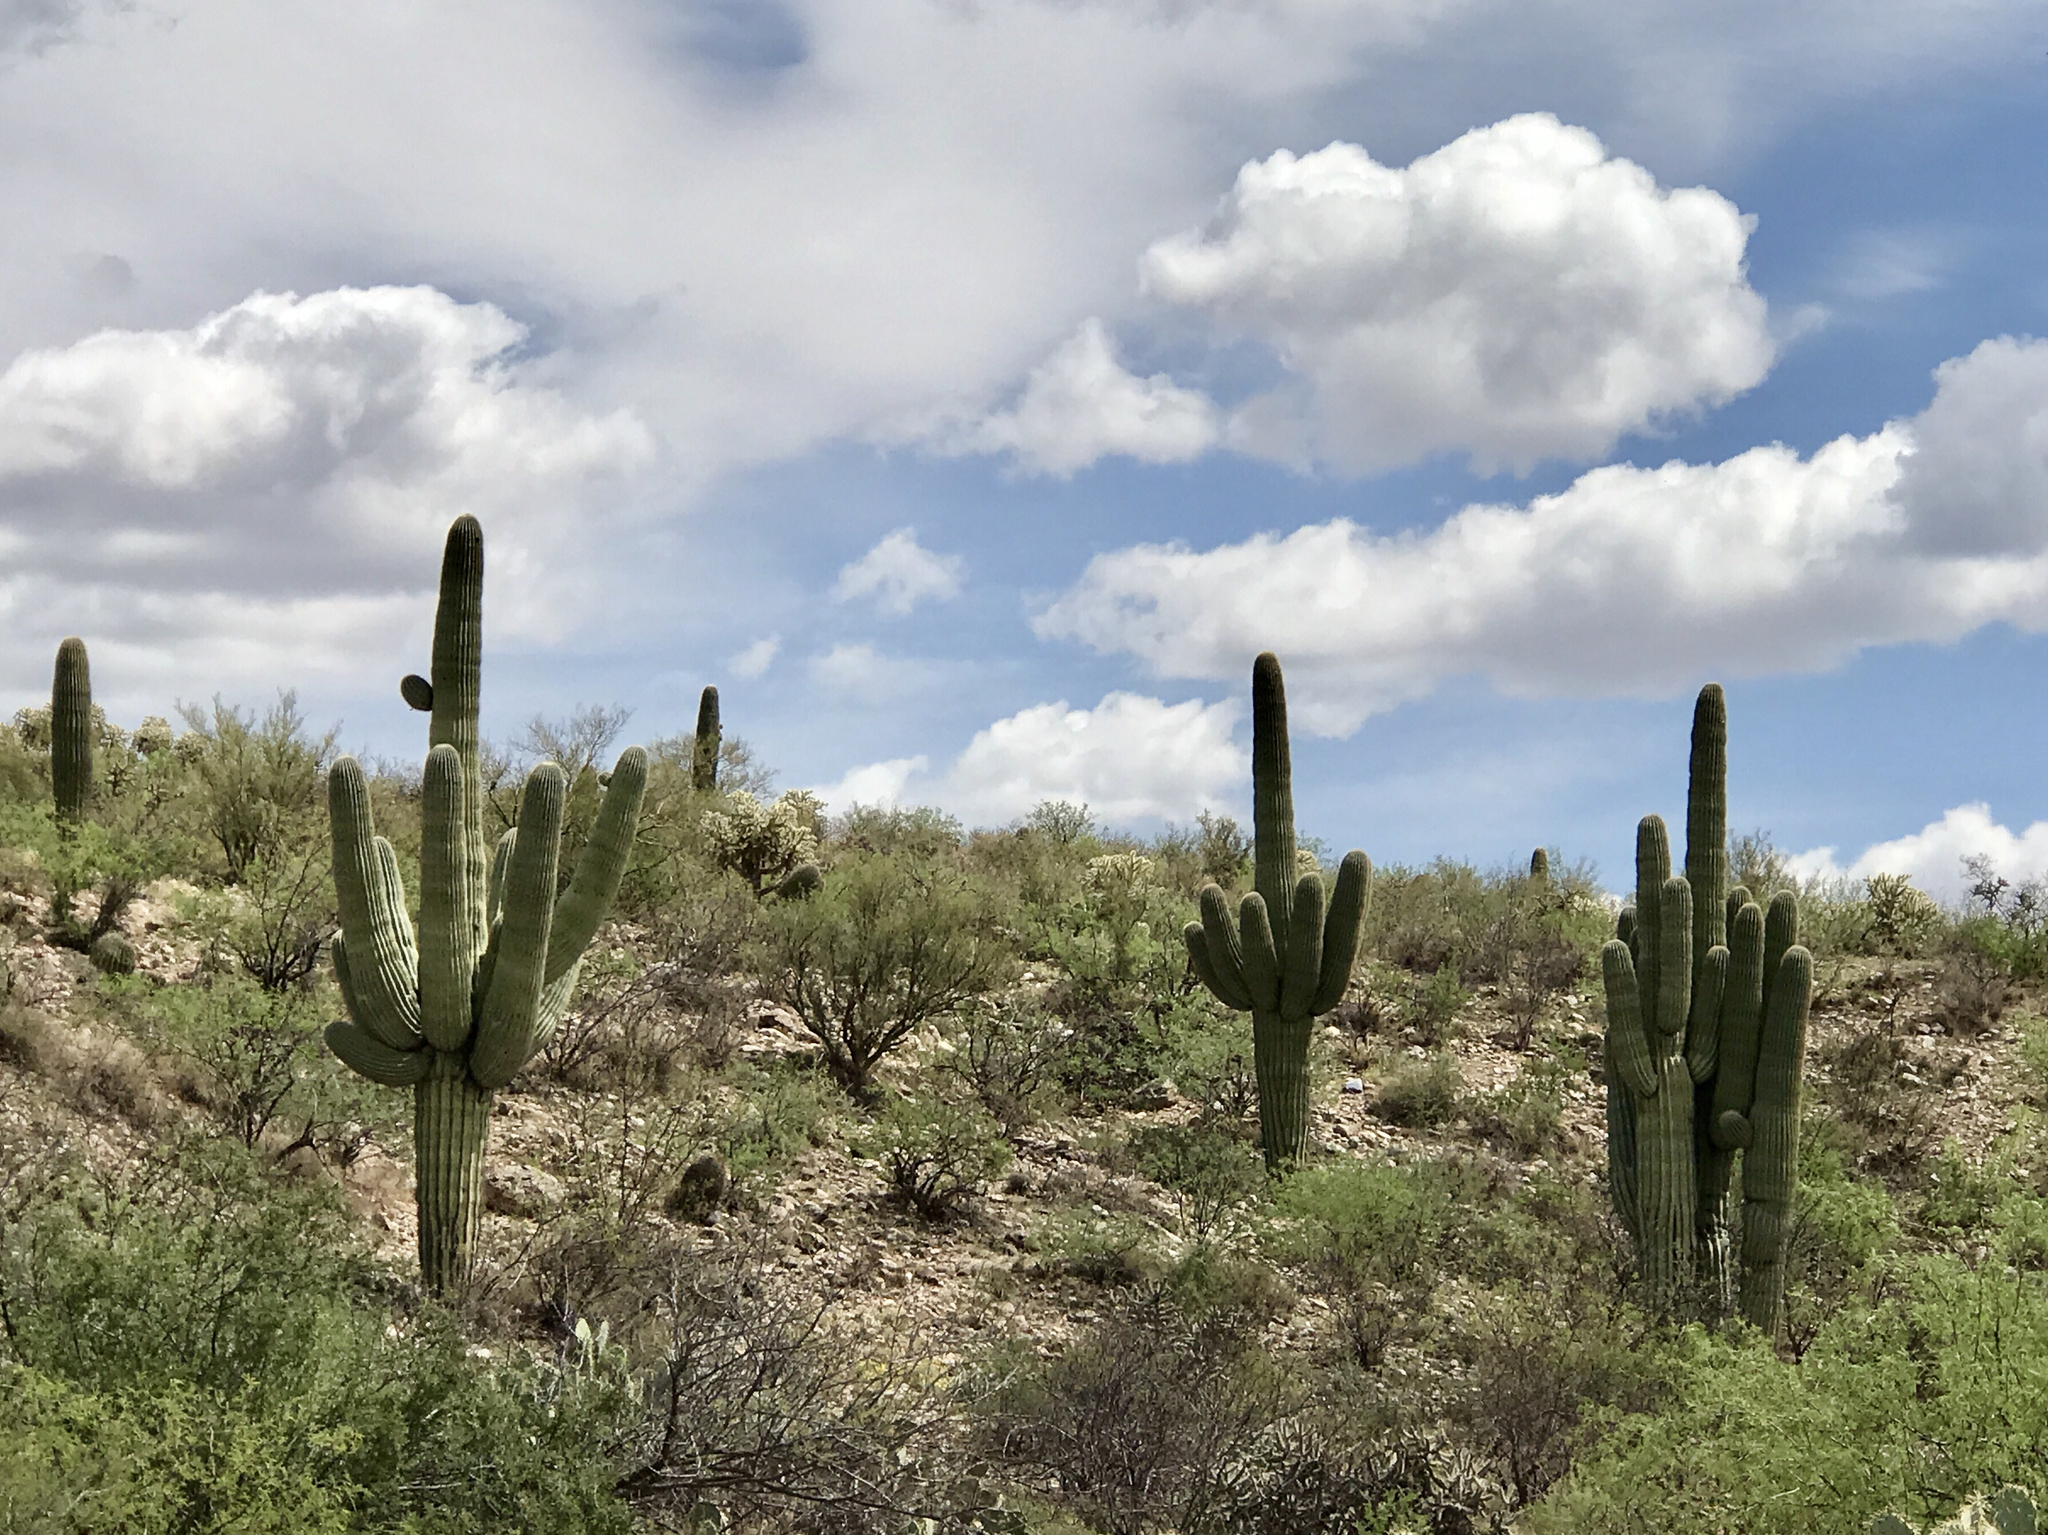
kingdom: Plantae
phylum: Tracheophyta
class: Magnoliopsida
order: Caryophyllales
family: Cactaceae
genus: Carnegiea
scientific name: Carnegiea gigantea
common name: Saguaro
